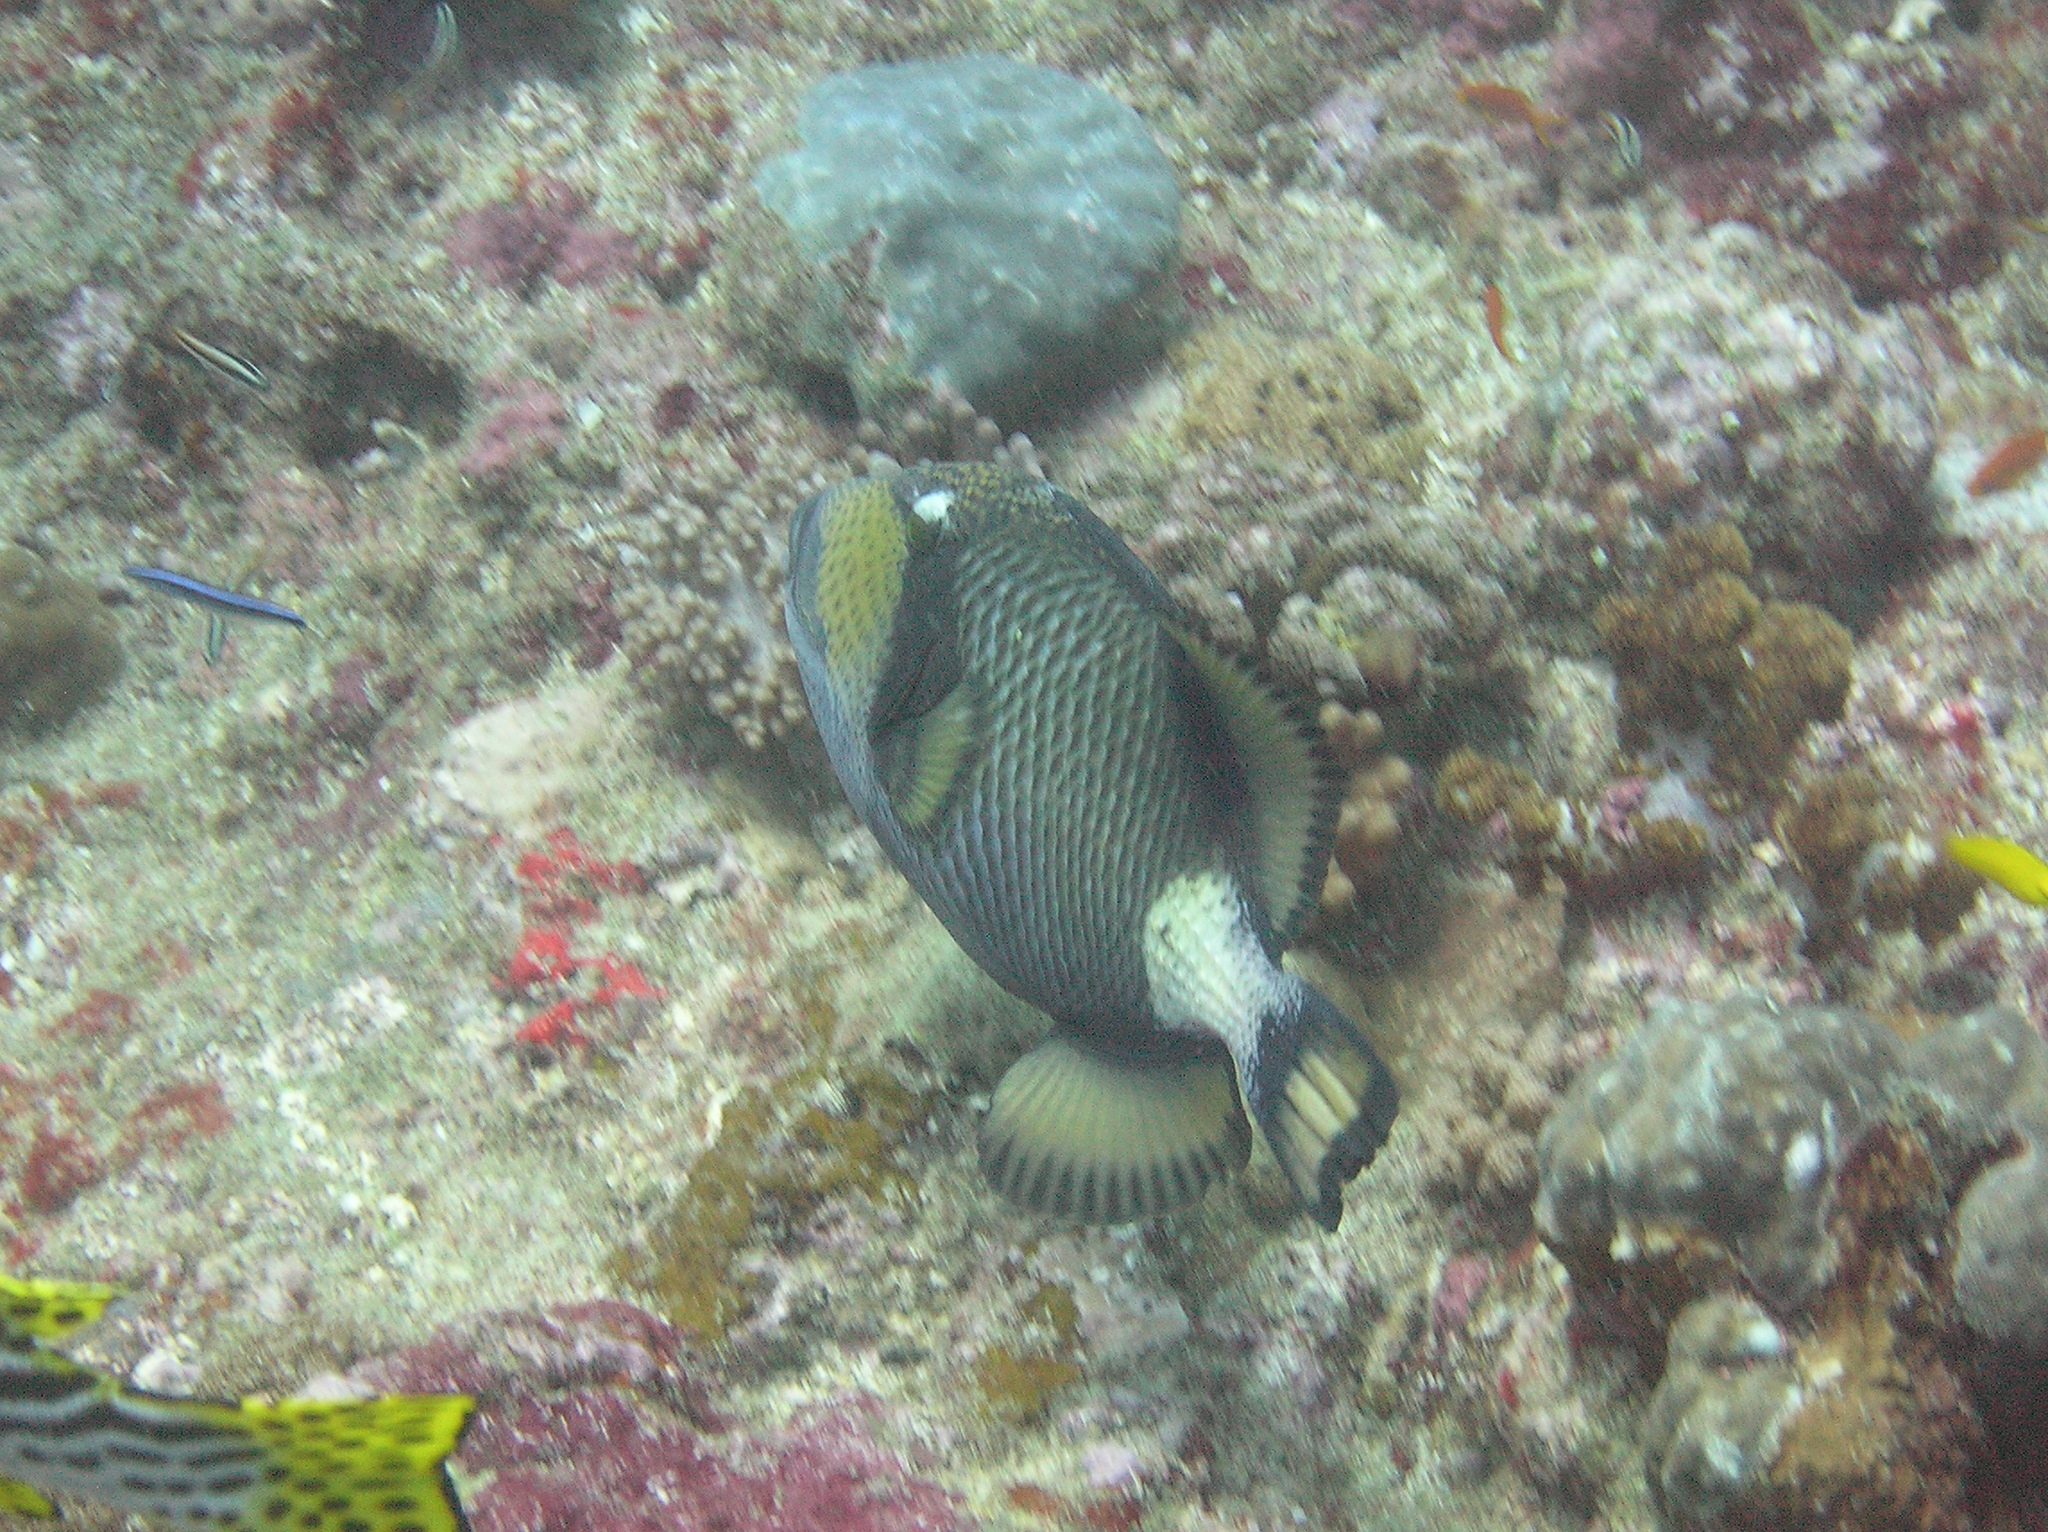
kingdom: Animalia
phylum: Chordata
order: Tetraodontiformes
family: Balistidae
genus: Balistoides
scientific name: Balistoides viridescens
